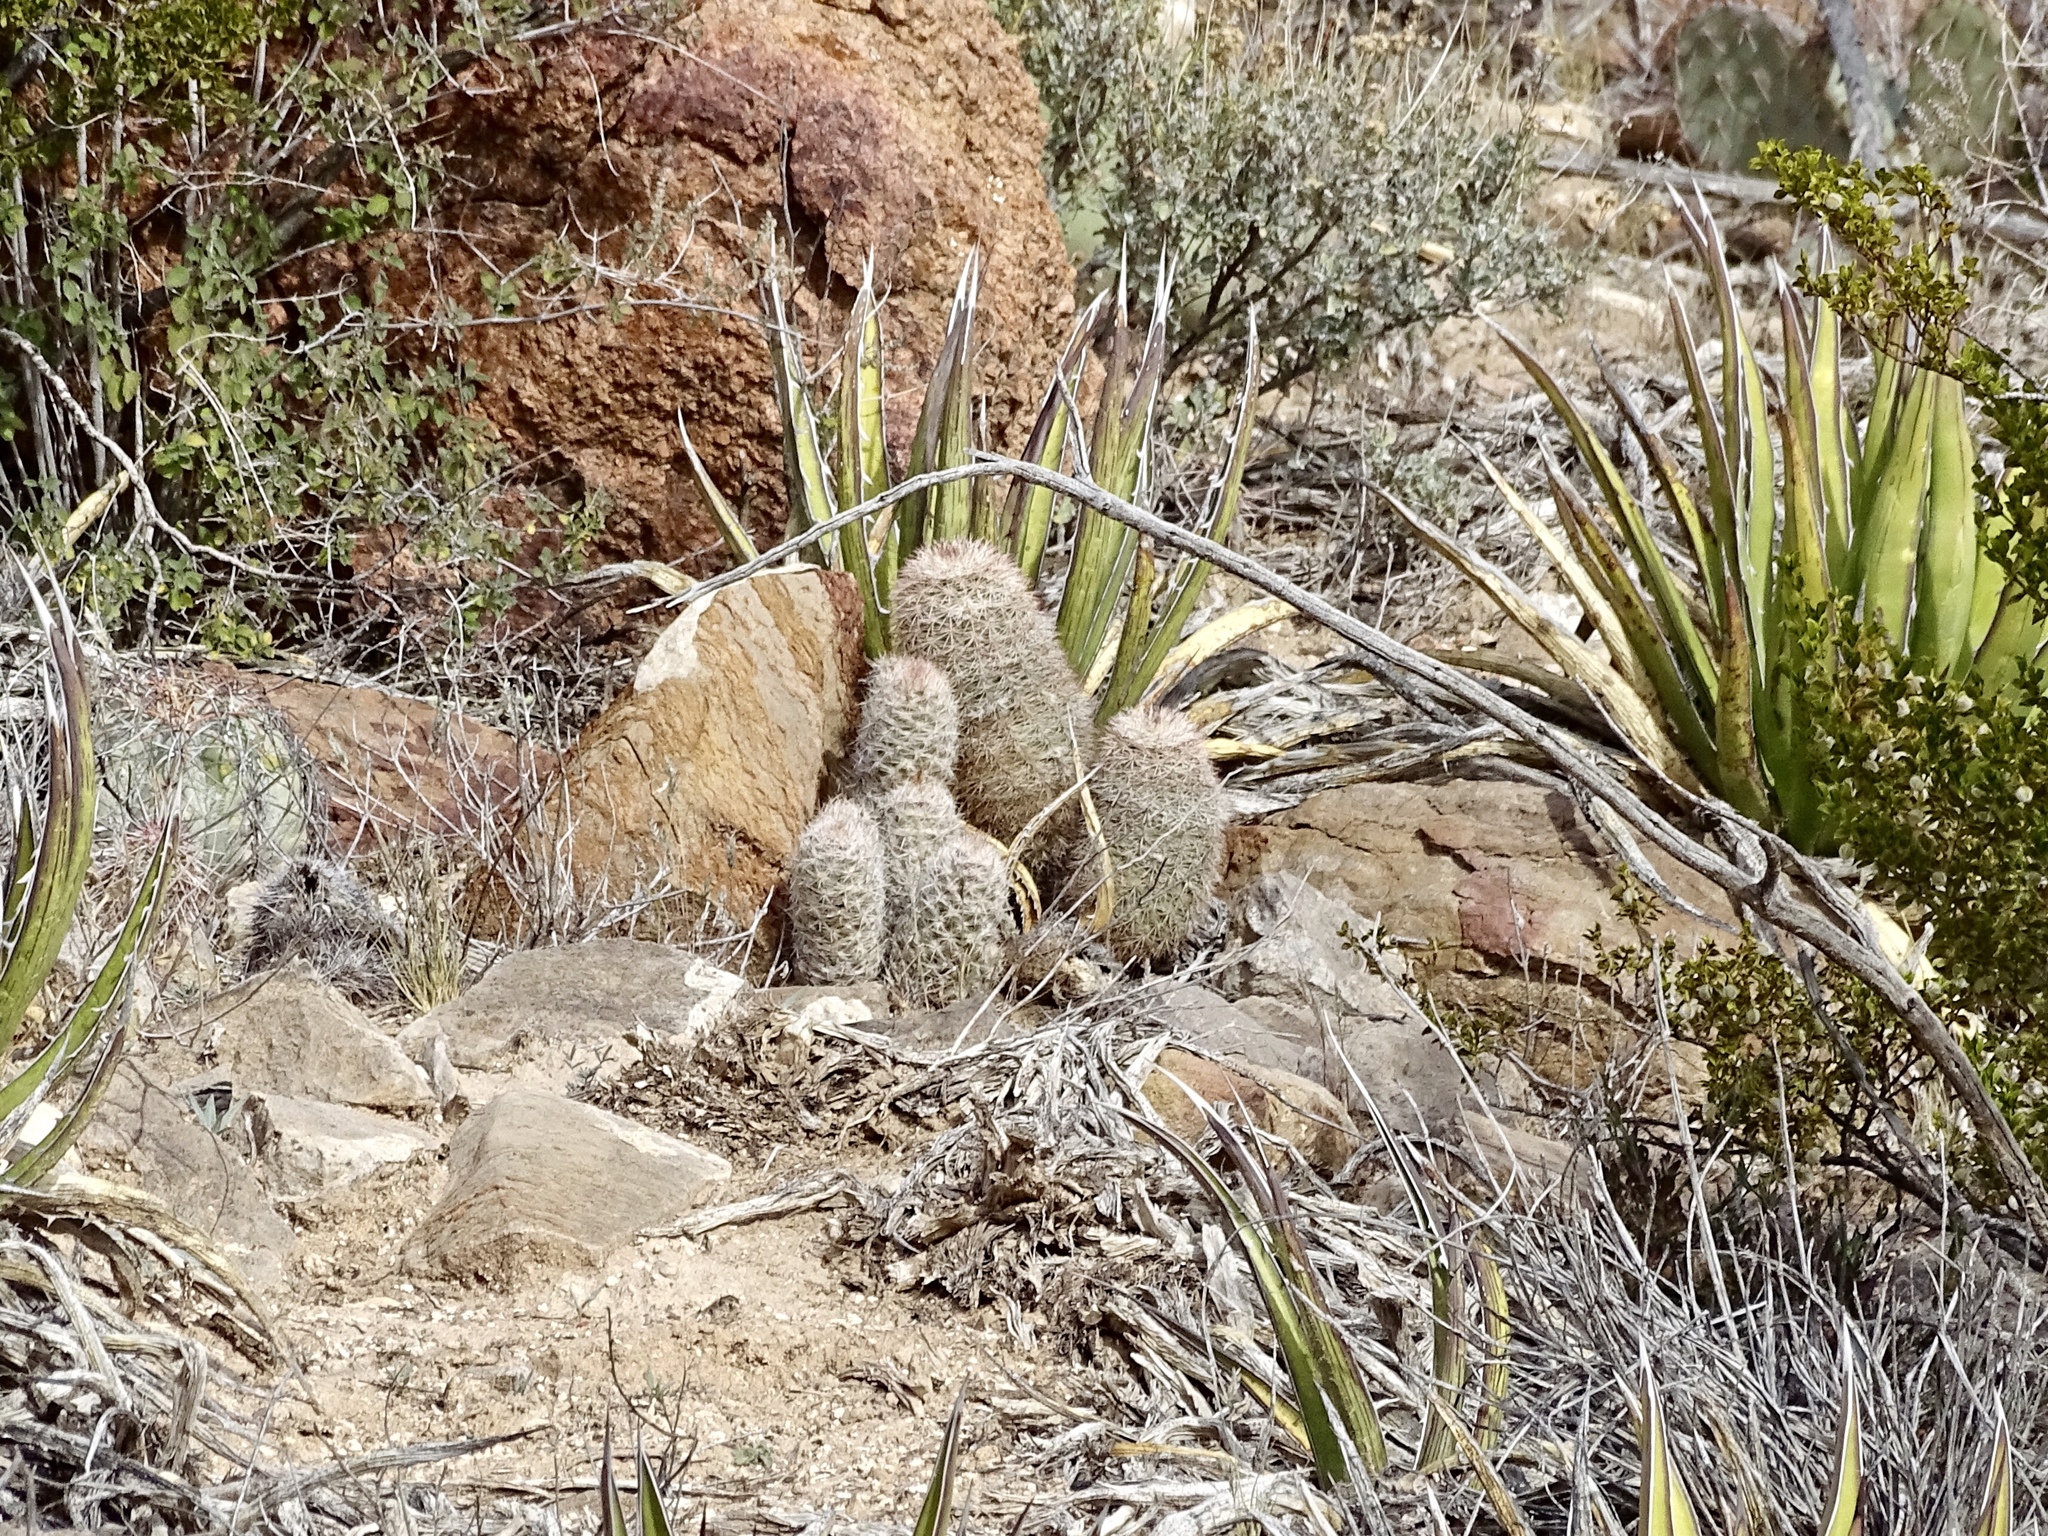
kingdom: Plantae
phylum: Tracheophyta
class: Magnoliopsida
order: Caryophyllales
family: Cactaceae
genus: Echinocereus
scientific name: Echinocereus dasyacanthus
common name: Spiny hedgehog cactus
